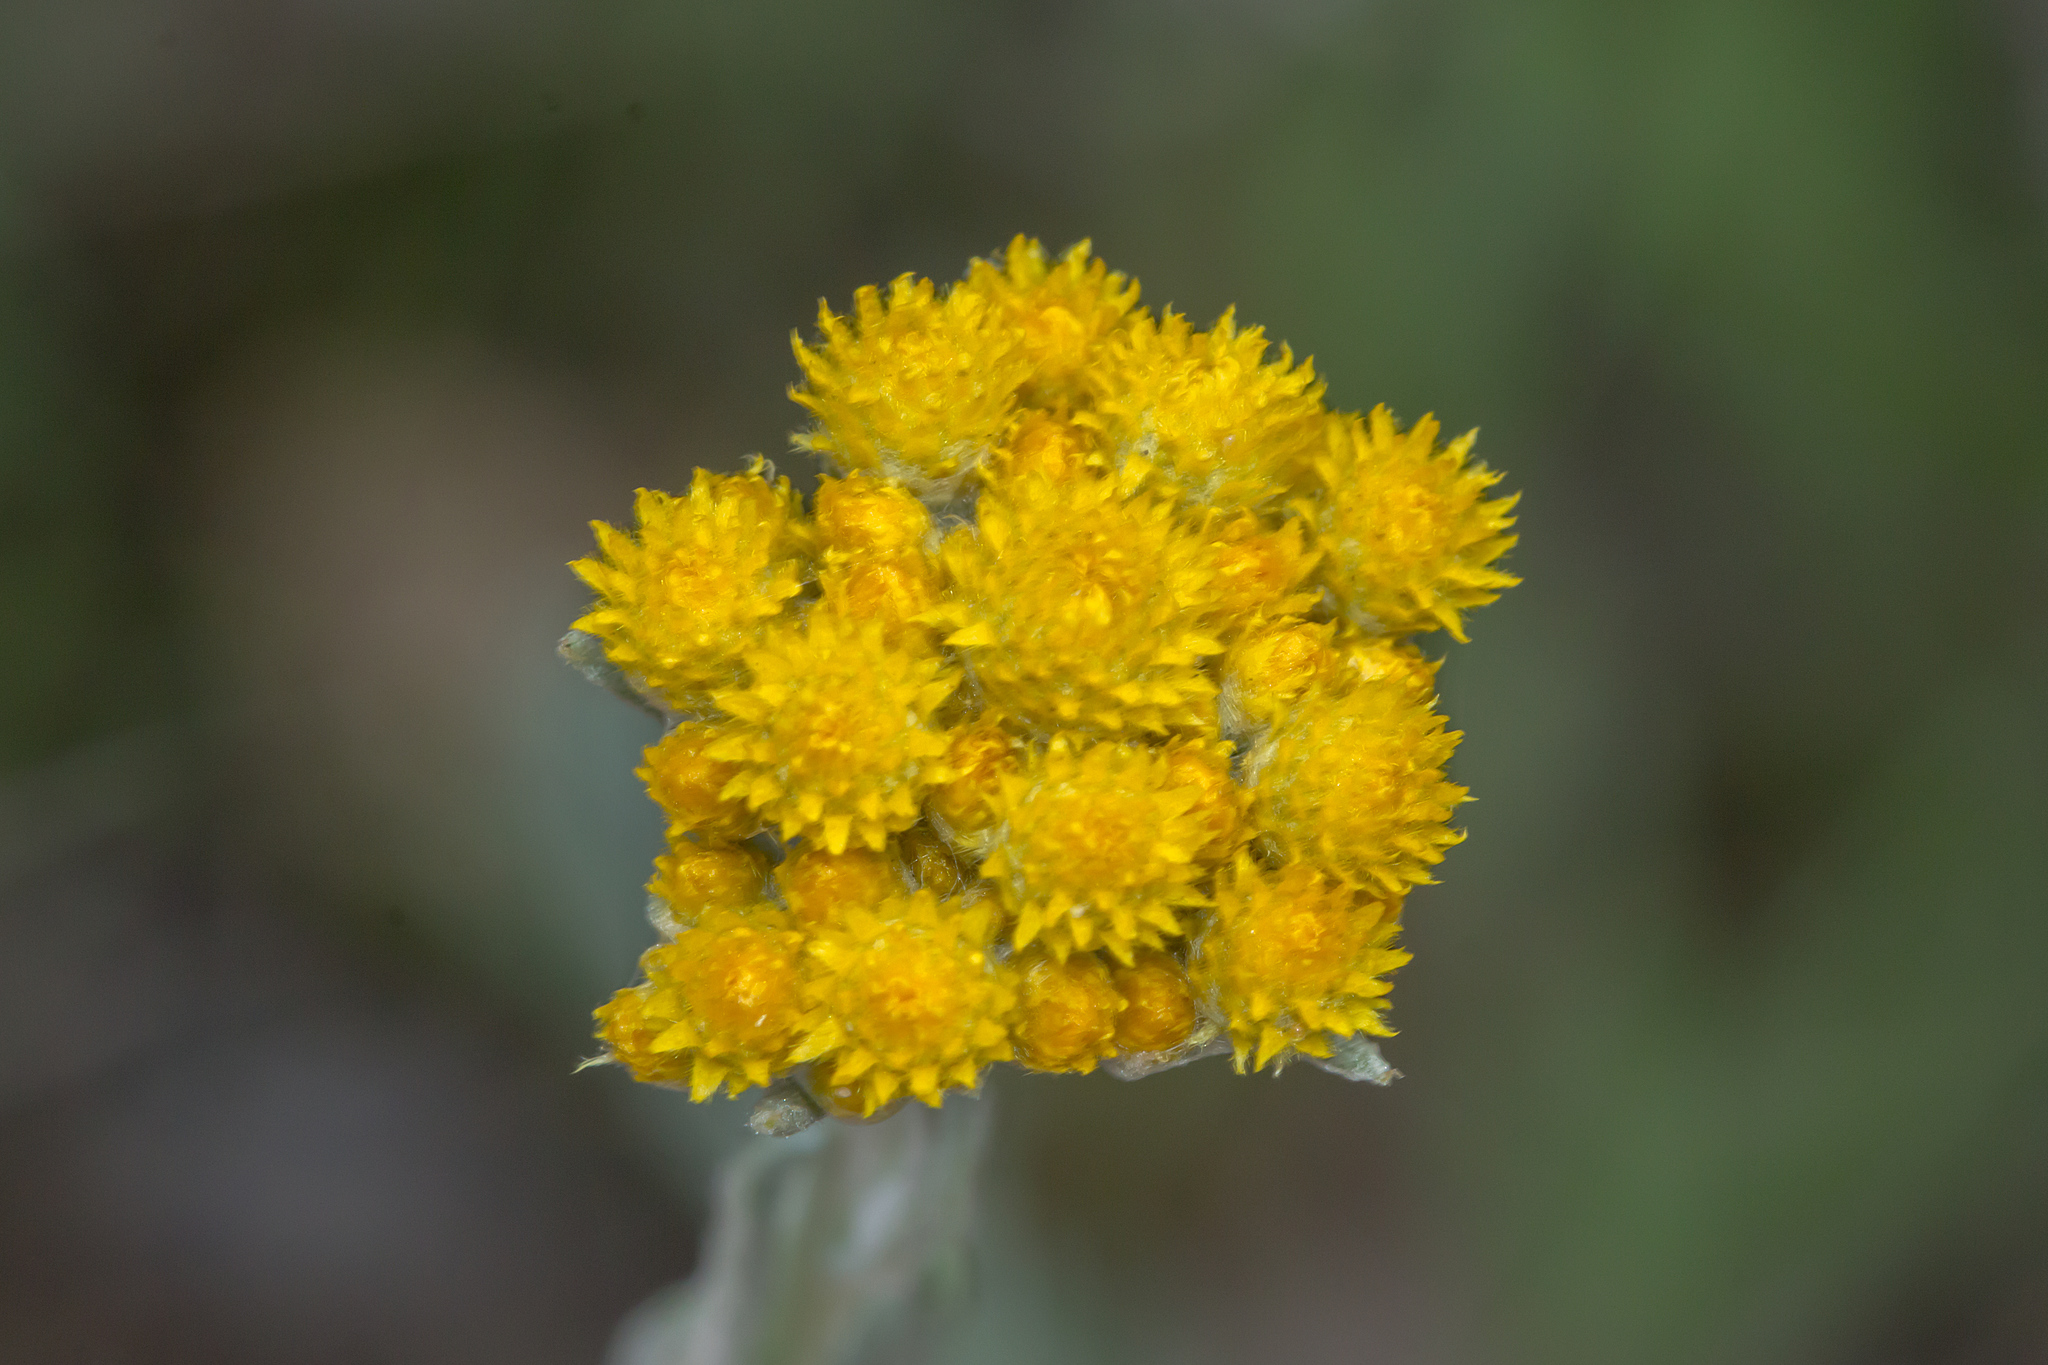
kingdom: Plantae
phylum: Tracheophyta
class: Magnoliopsida
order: Asterales
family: Asteraceae
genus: Chrysocephalum
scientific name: Chrysocephalum semipapposum
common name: Clustered everlasting
